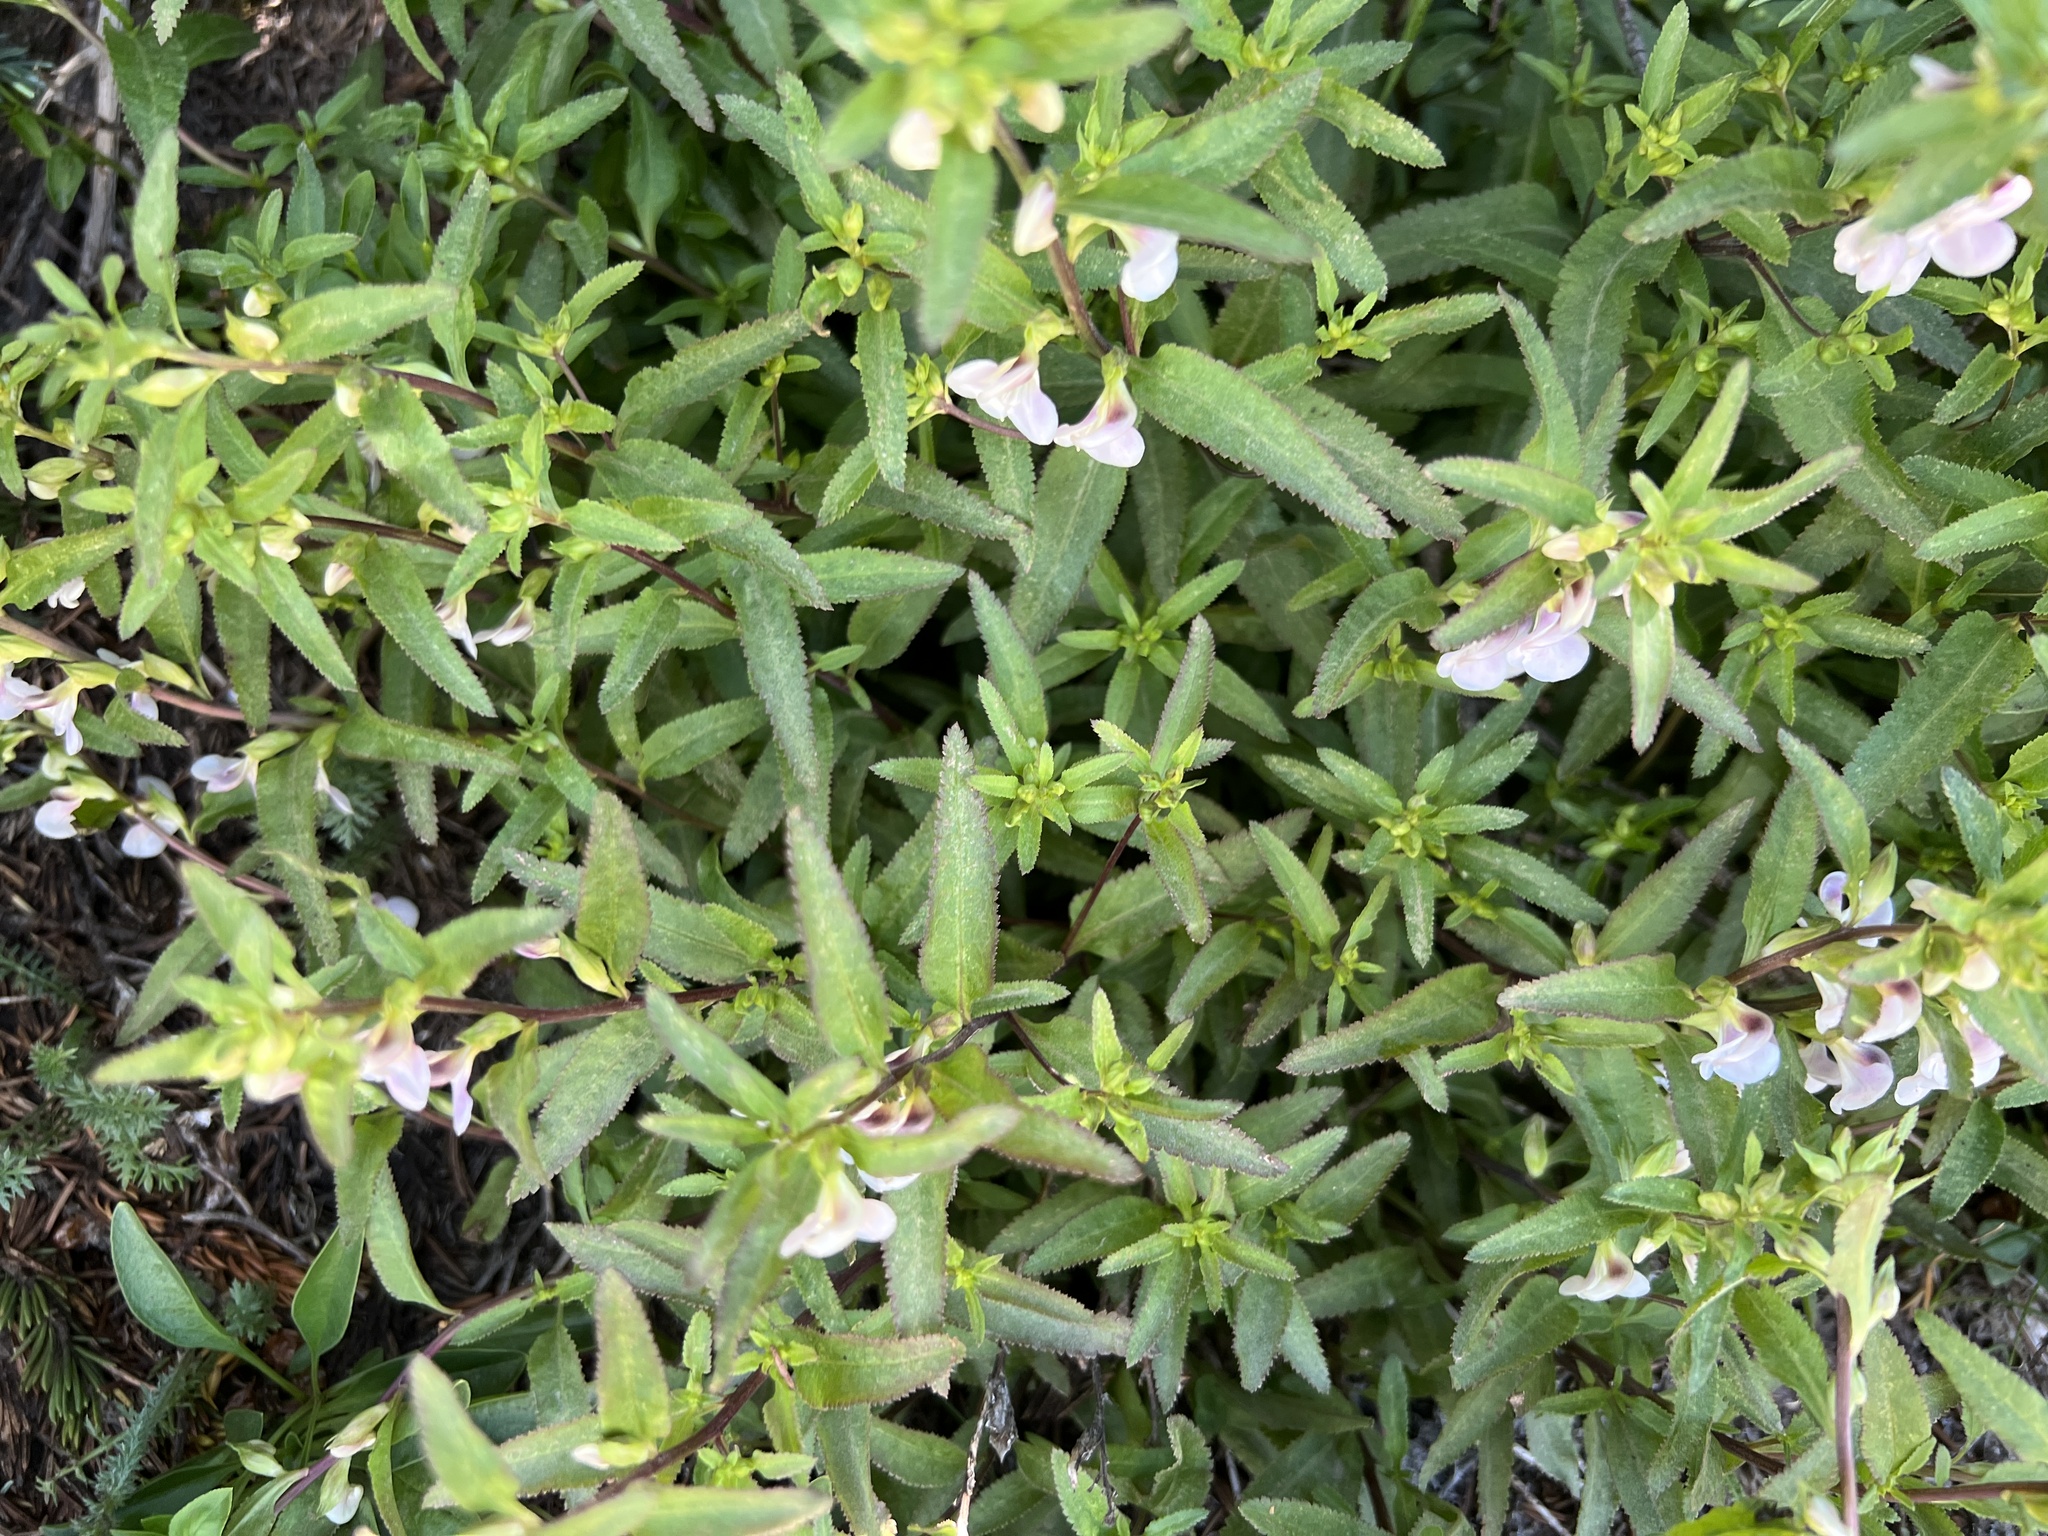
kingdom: Plantae
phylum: Tracheophyta
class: Magnoliopsida
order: Lamiales
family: Orobanchaceae
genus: Pedicularis
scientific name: Pedicularis racemosa
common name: Leafy lousewort
